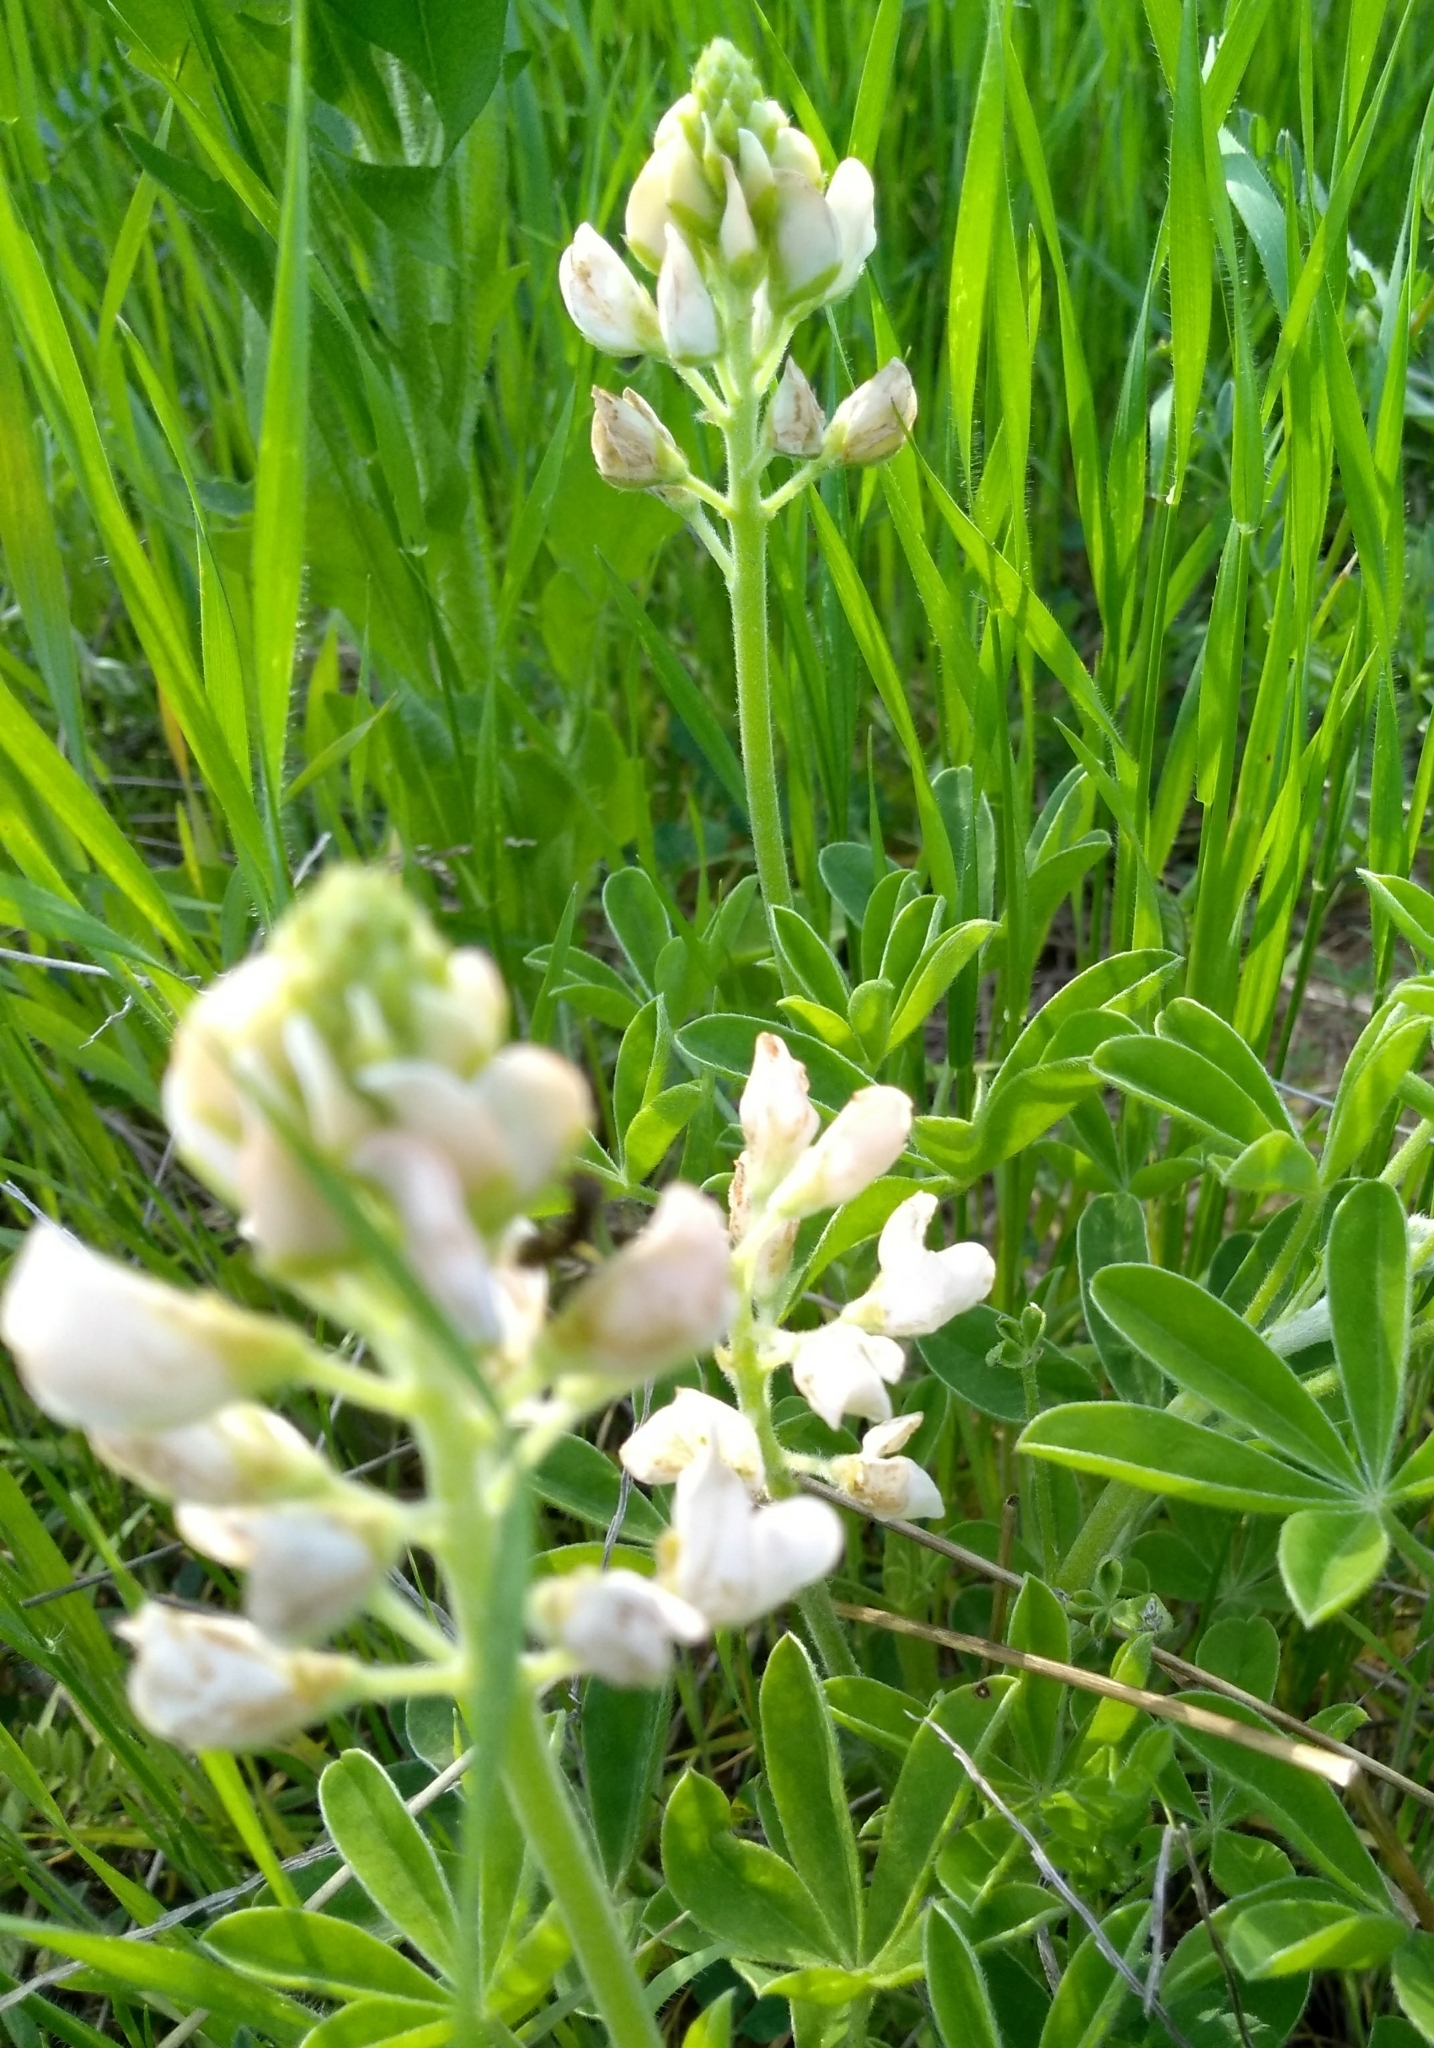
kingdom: Plantae
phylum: Tracheophyta
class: Magnoliopsida
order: Fabales
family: Fabaceae
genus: Lupinus
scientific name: Lupinus texensis
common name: Texas bluebonnet
